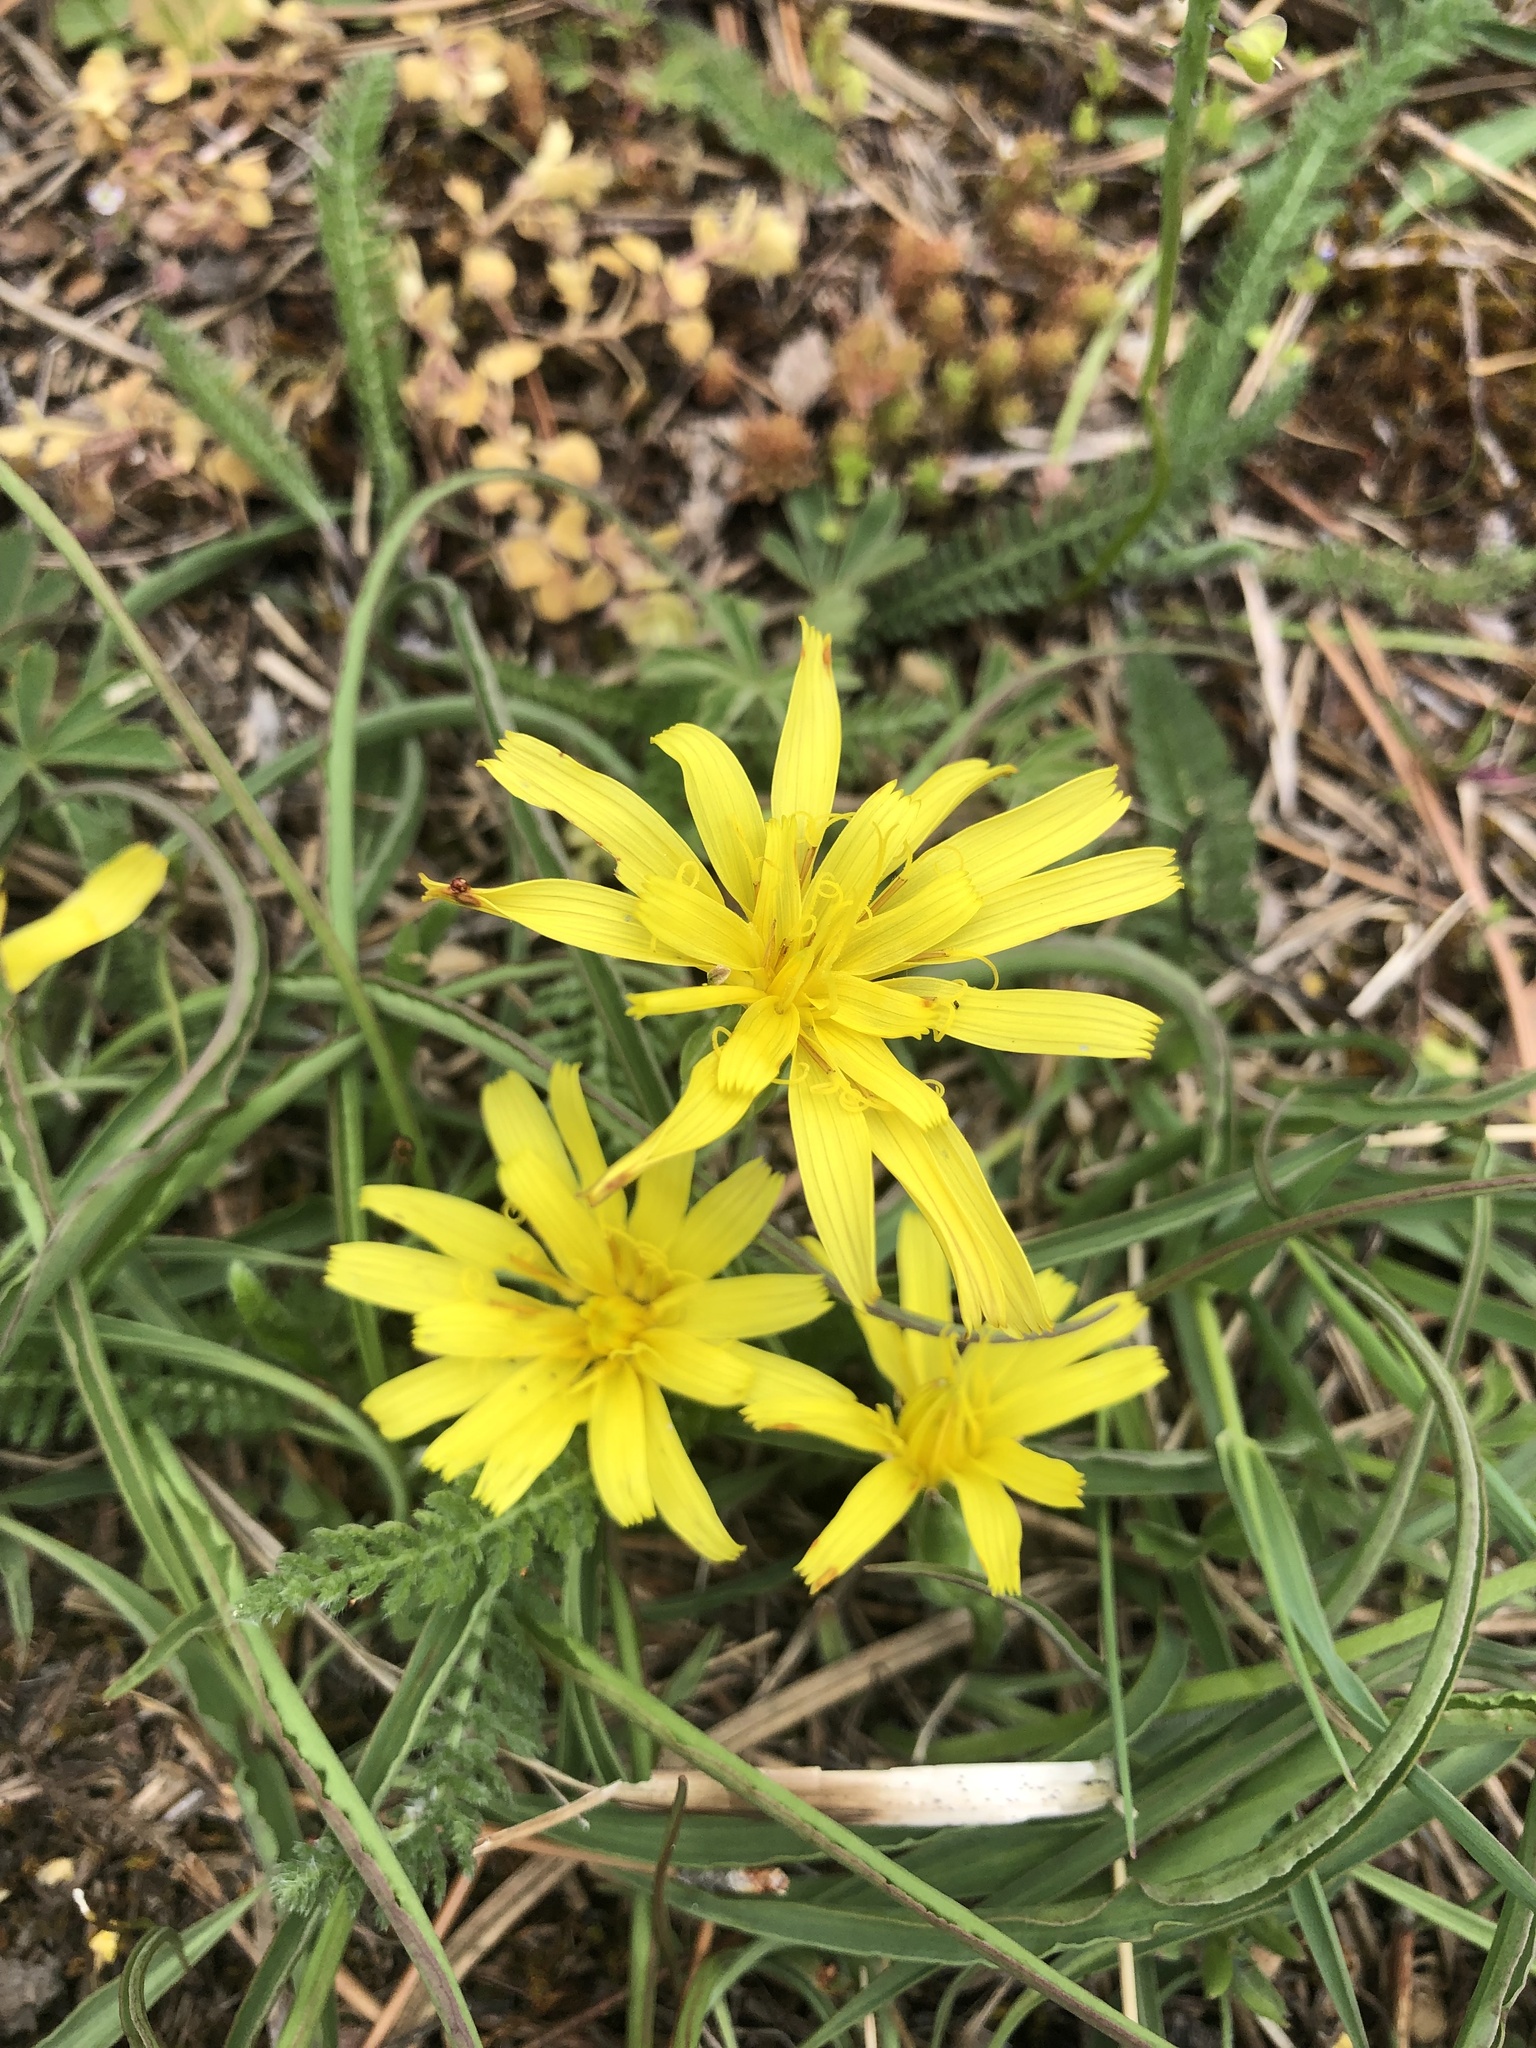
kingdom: Plantae
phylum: Tracheophyta
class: Magnoliopsida
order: Asterales
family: Asteraceae
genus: Takhtajaniantha
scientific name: Takhtajaniantha austriaca
